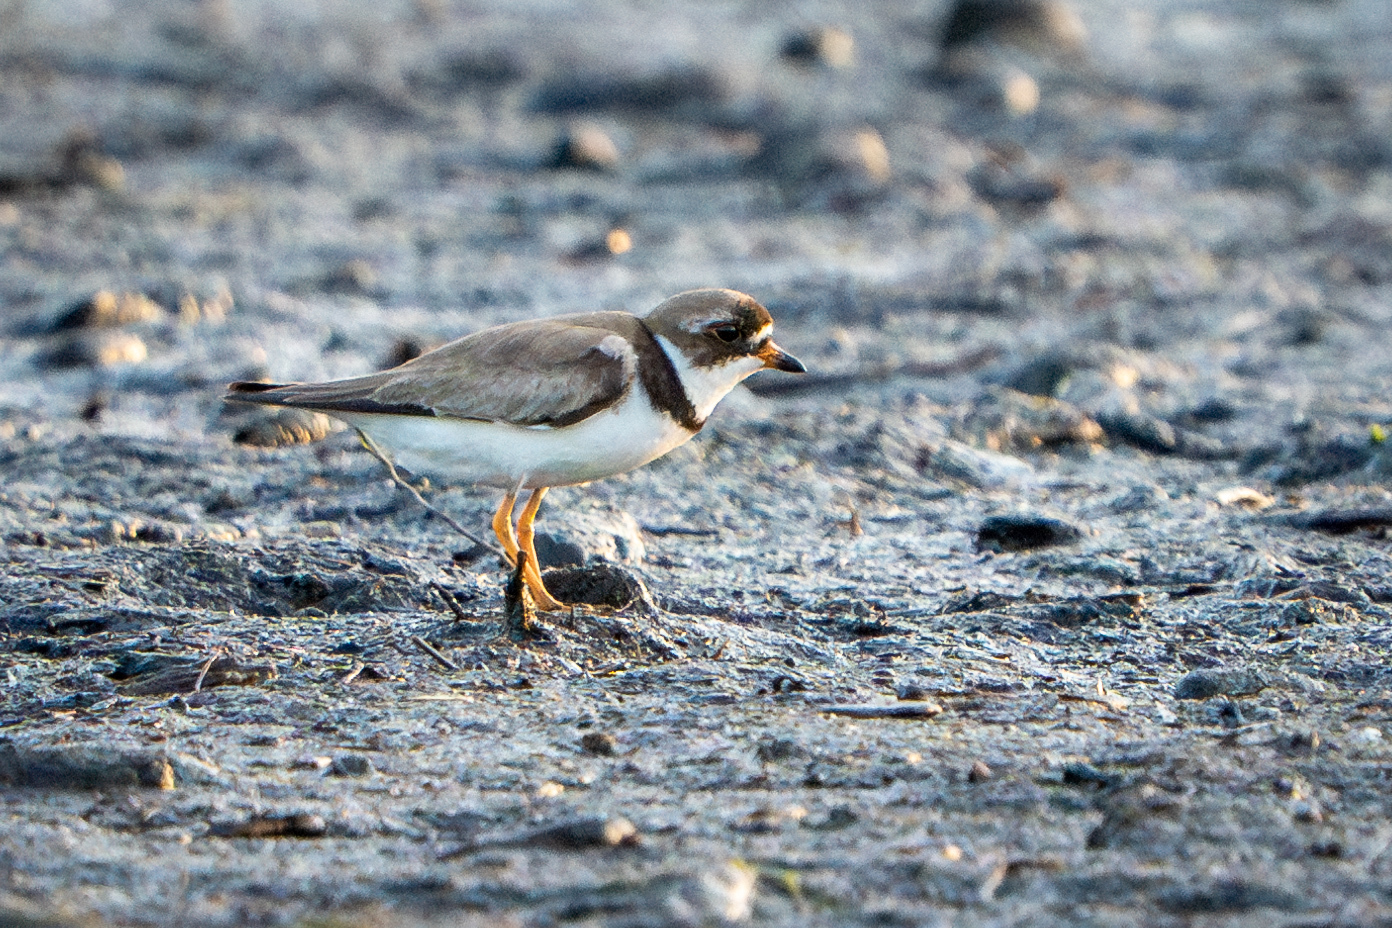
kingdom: Animalia
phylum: Chordata
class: Aves
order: Charadriiformes
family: Charadriidae
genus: Charadrius
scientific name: Charadrius semipalmatus
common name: Semipalmated plover
